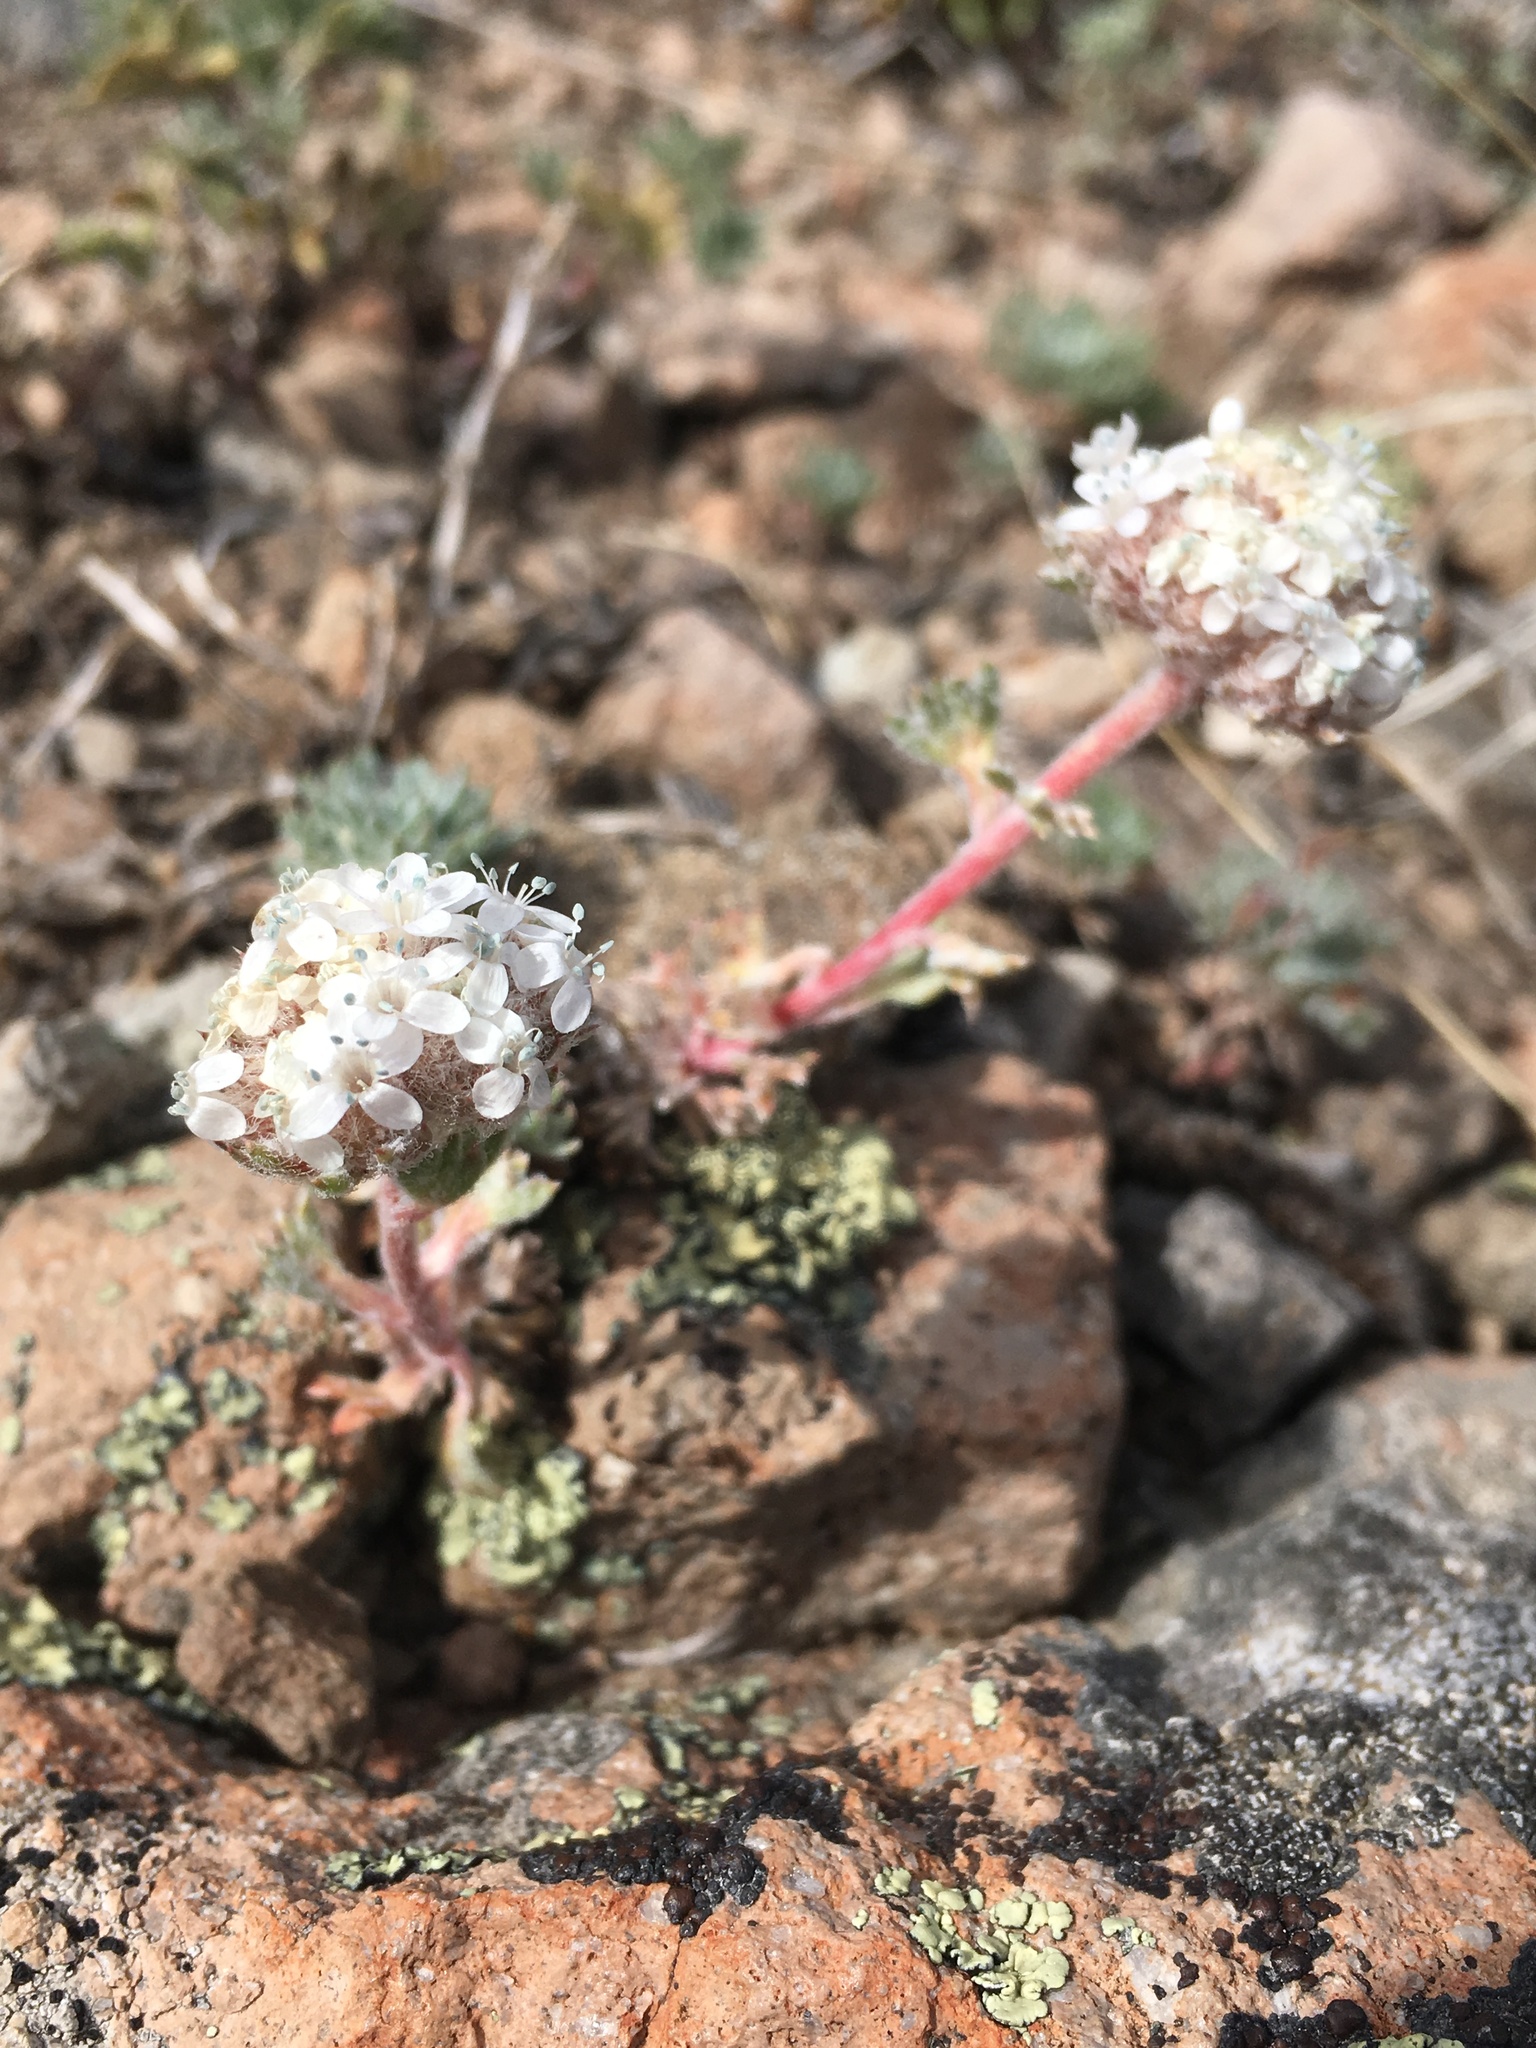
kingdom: Plantae
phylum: Tracheophyta
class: Magnoliopsida
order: Ericales
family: Polemoniaceae
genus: Ipomopsis
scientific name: Ipomopsis congesta
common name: Ball-head gilia
